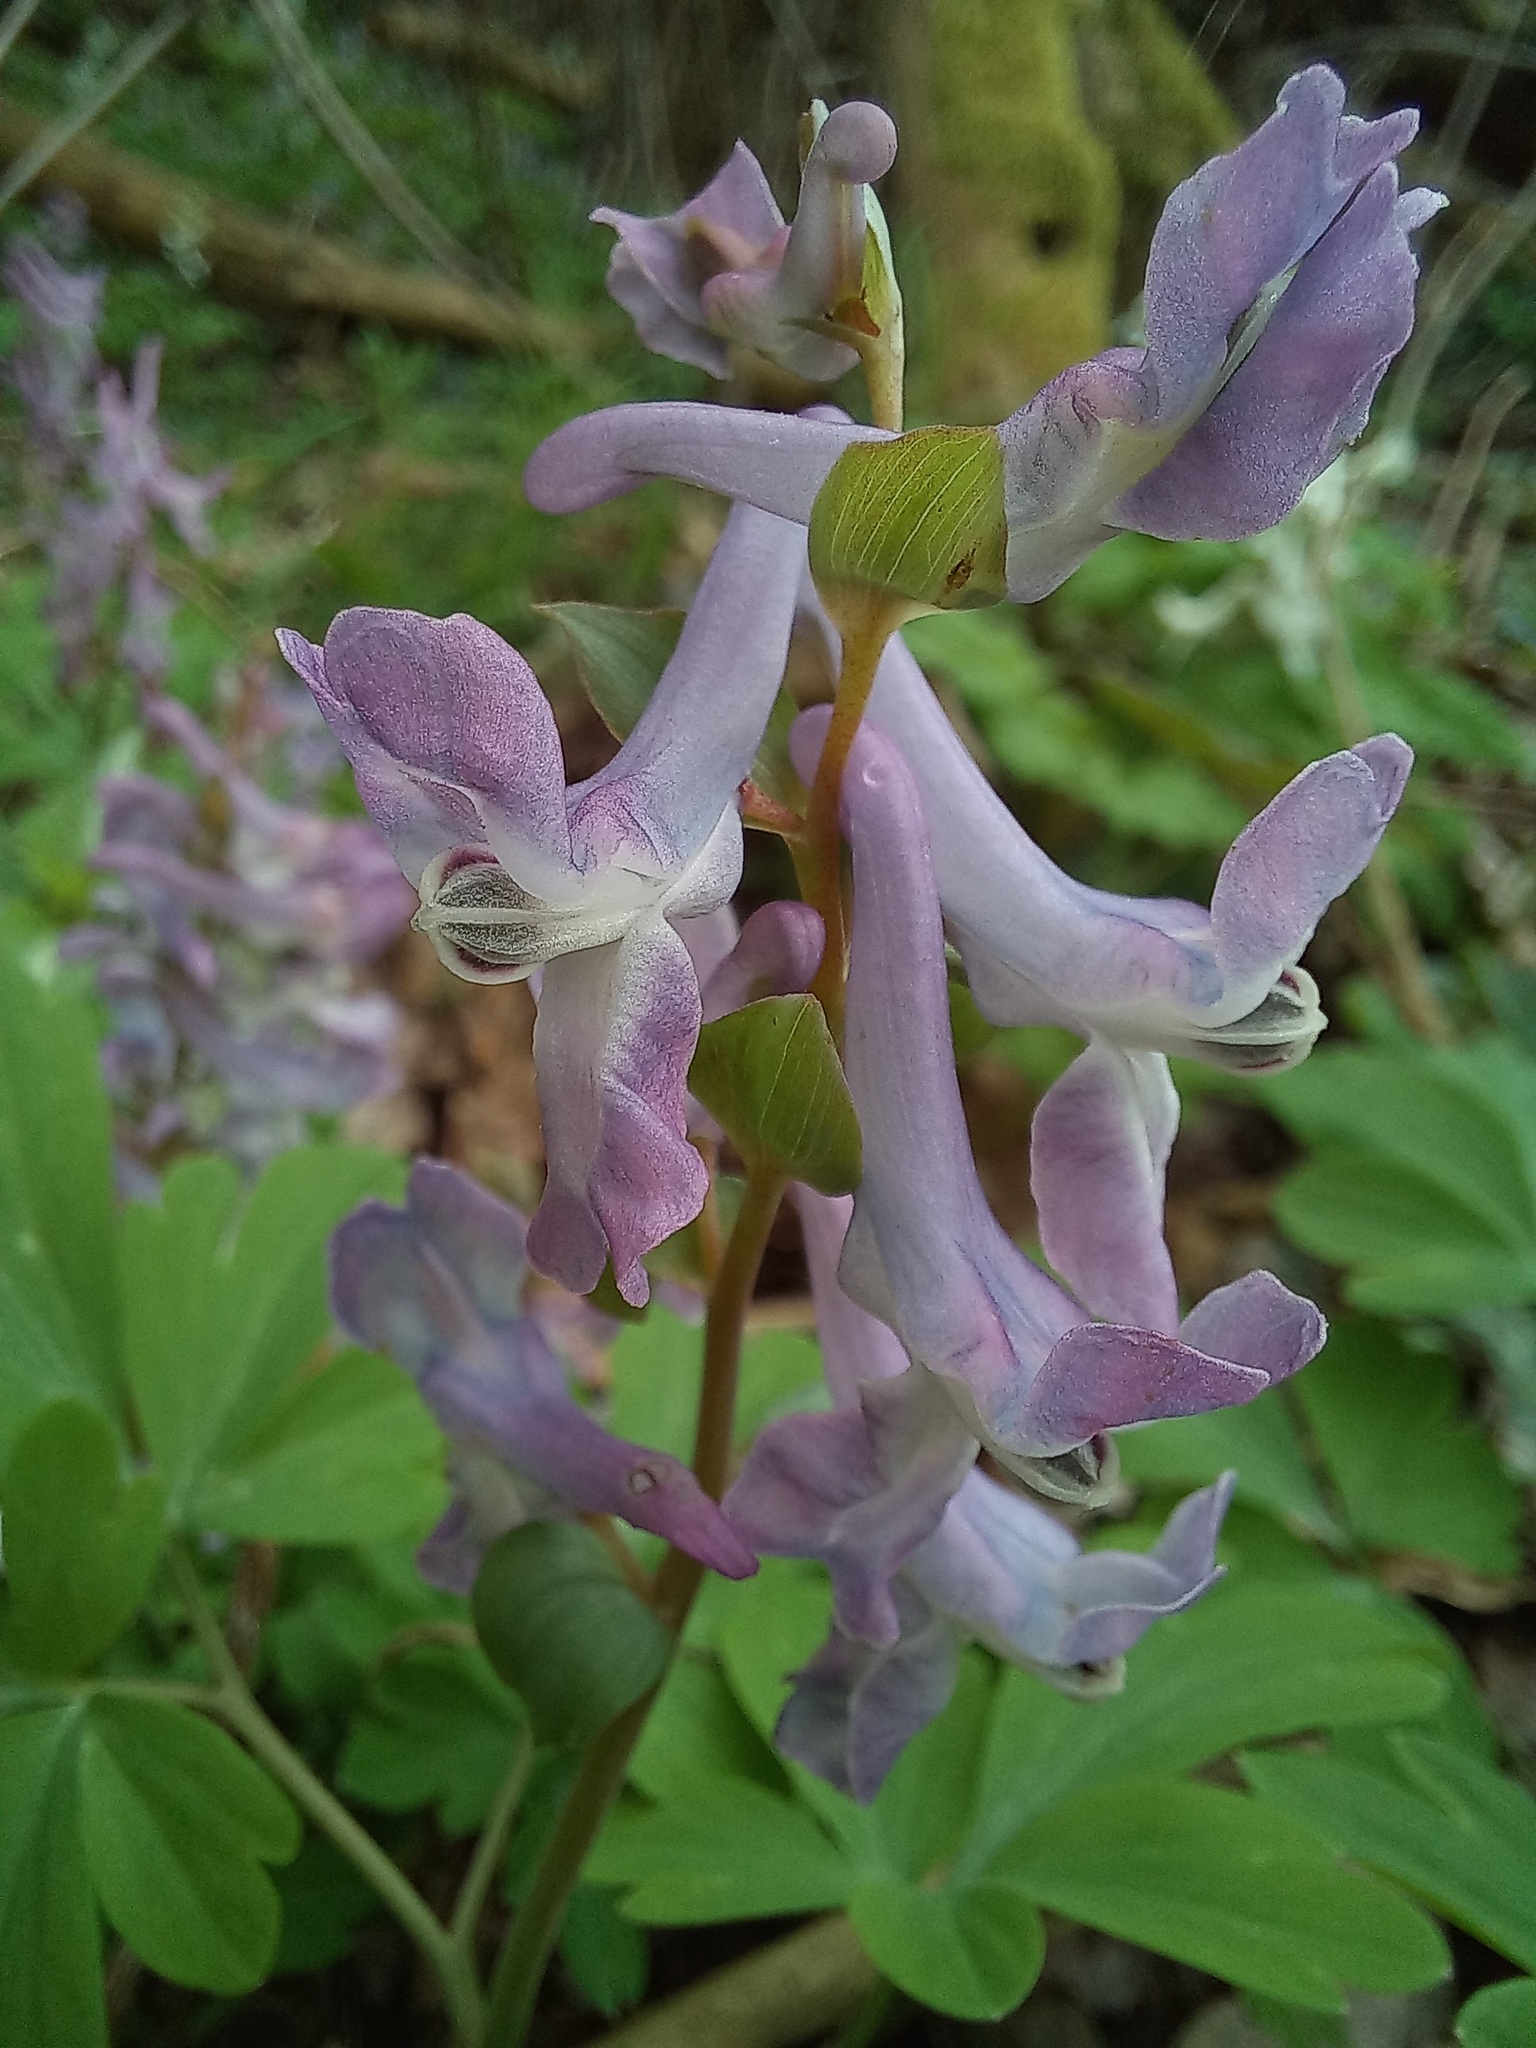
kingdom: Plantae
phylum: Tracheophyta
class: Magnoliopsida
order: Ranunculales
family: Papaveraceae
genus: Corydalis
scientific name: Corydalis cava
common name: Hollowroot
